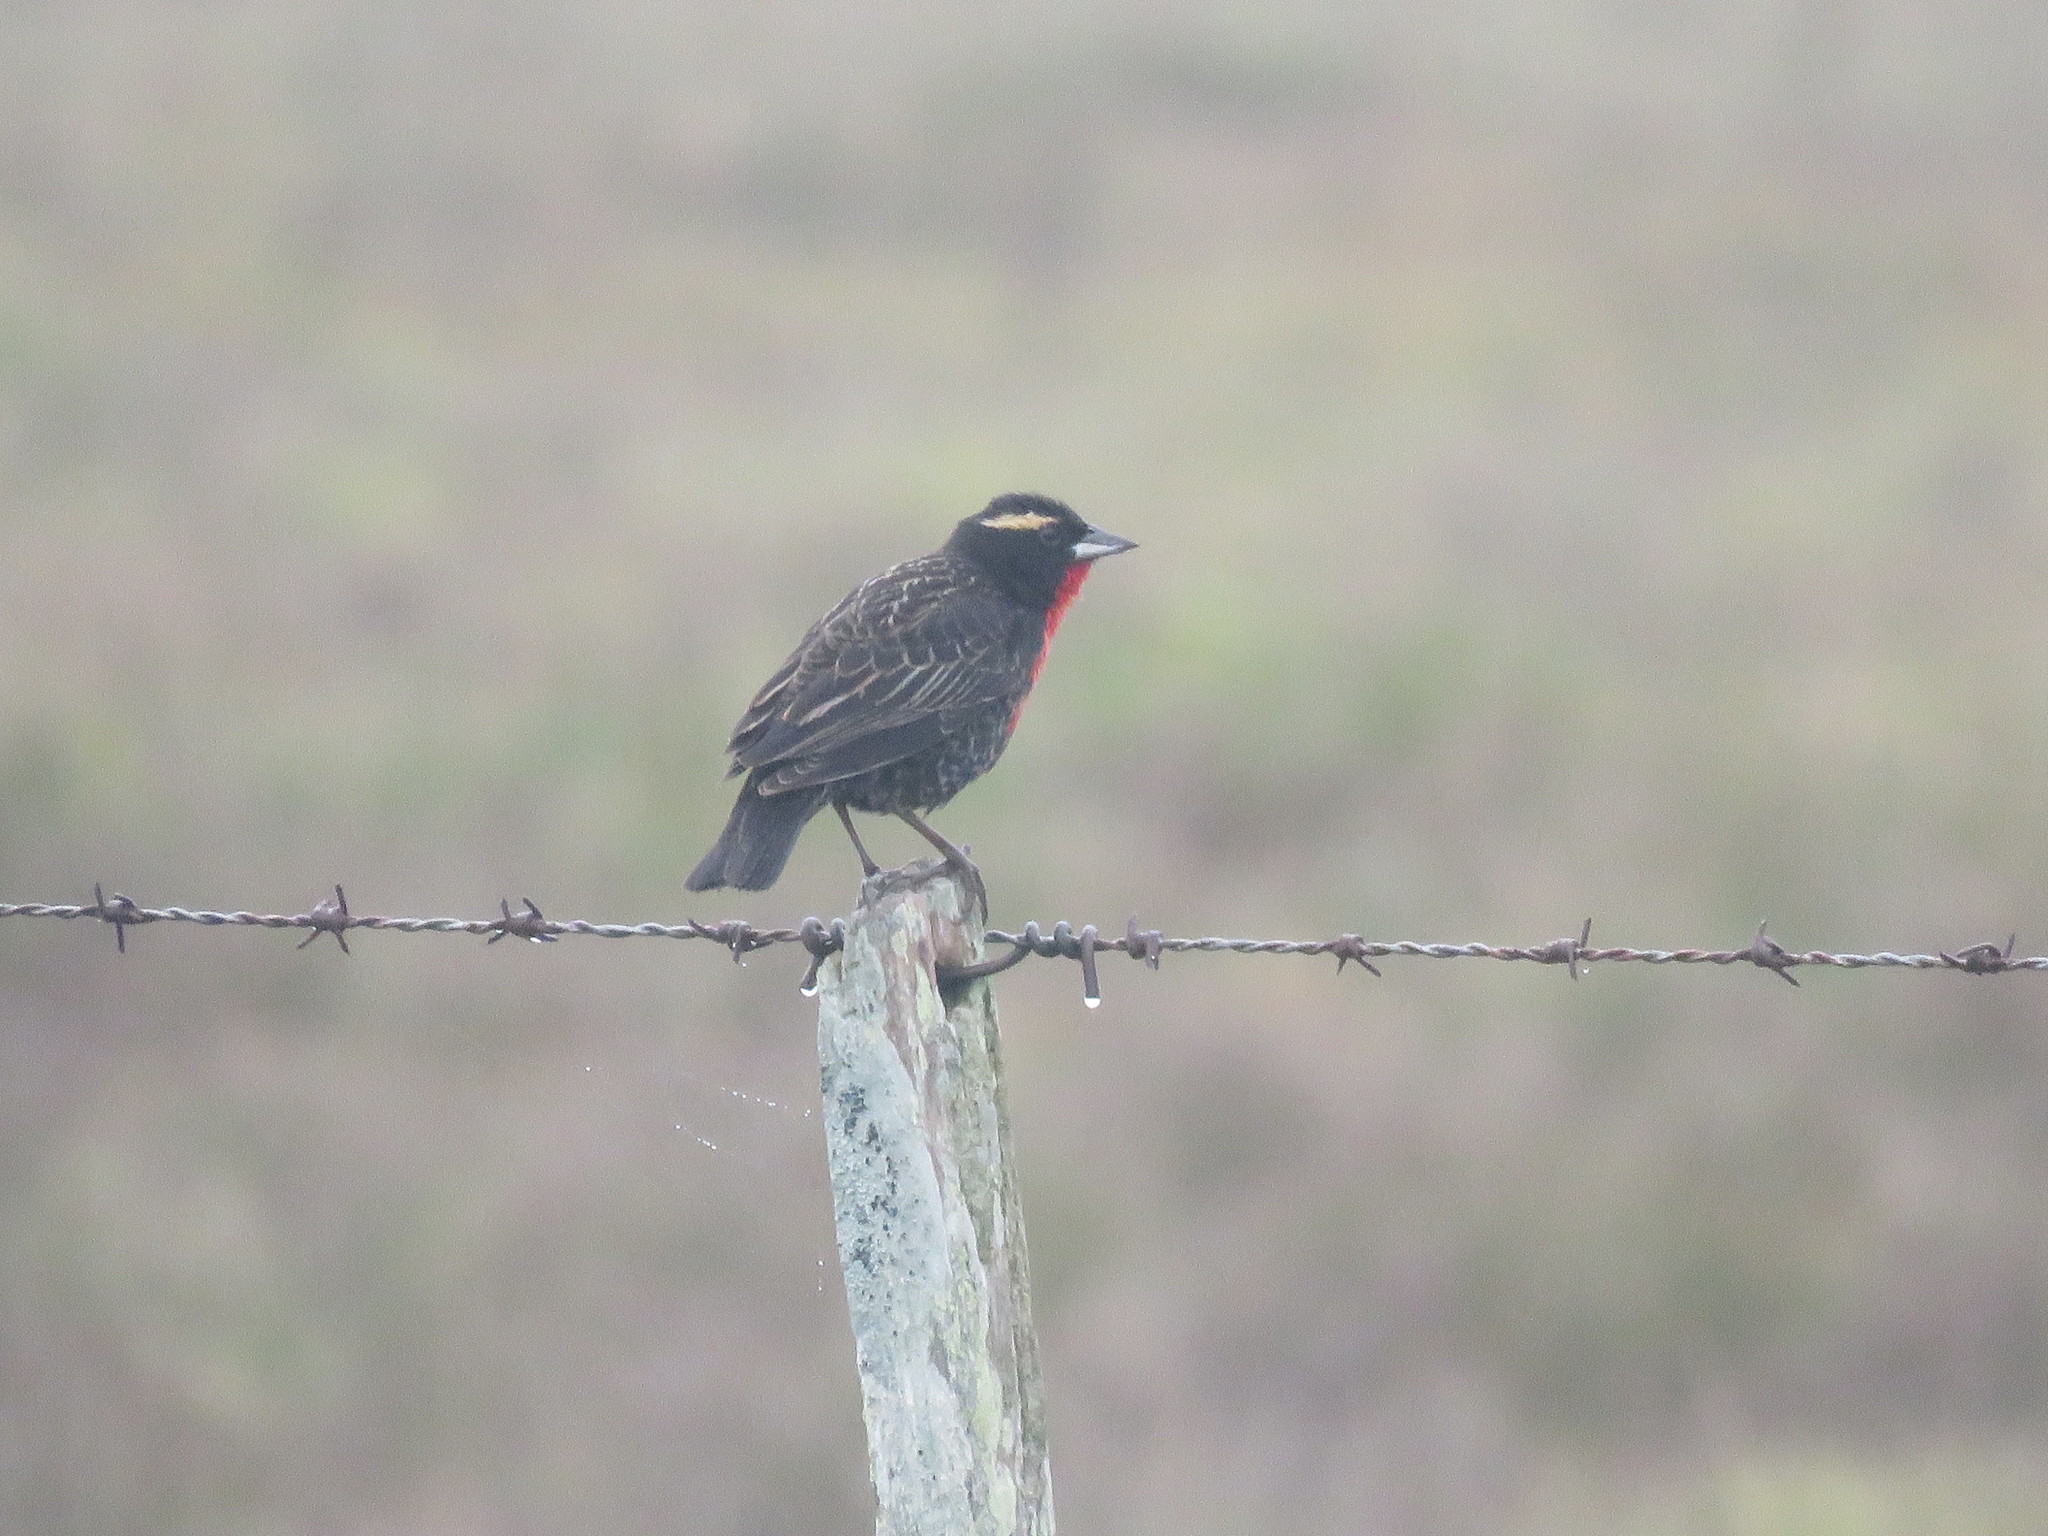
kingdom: Animalia
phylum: Chordata
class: Aves
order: Passeriformes
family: Icteridae
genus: Sturnella
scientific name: Sturnella superciliaris
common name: White-browed blackbird
